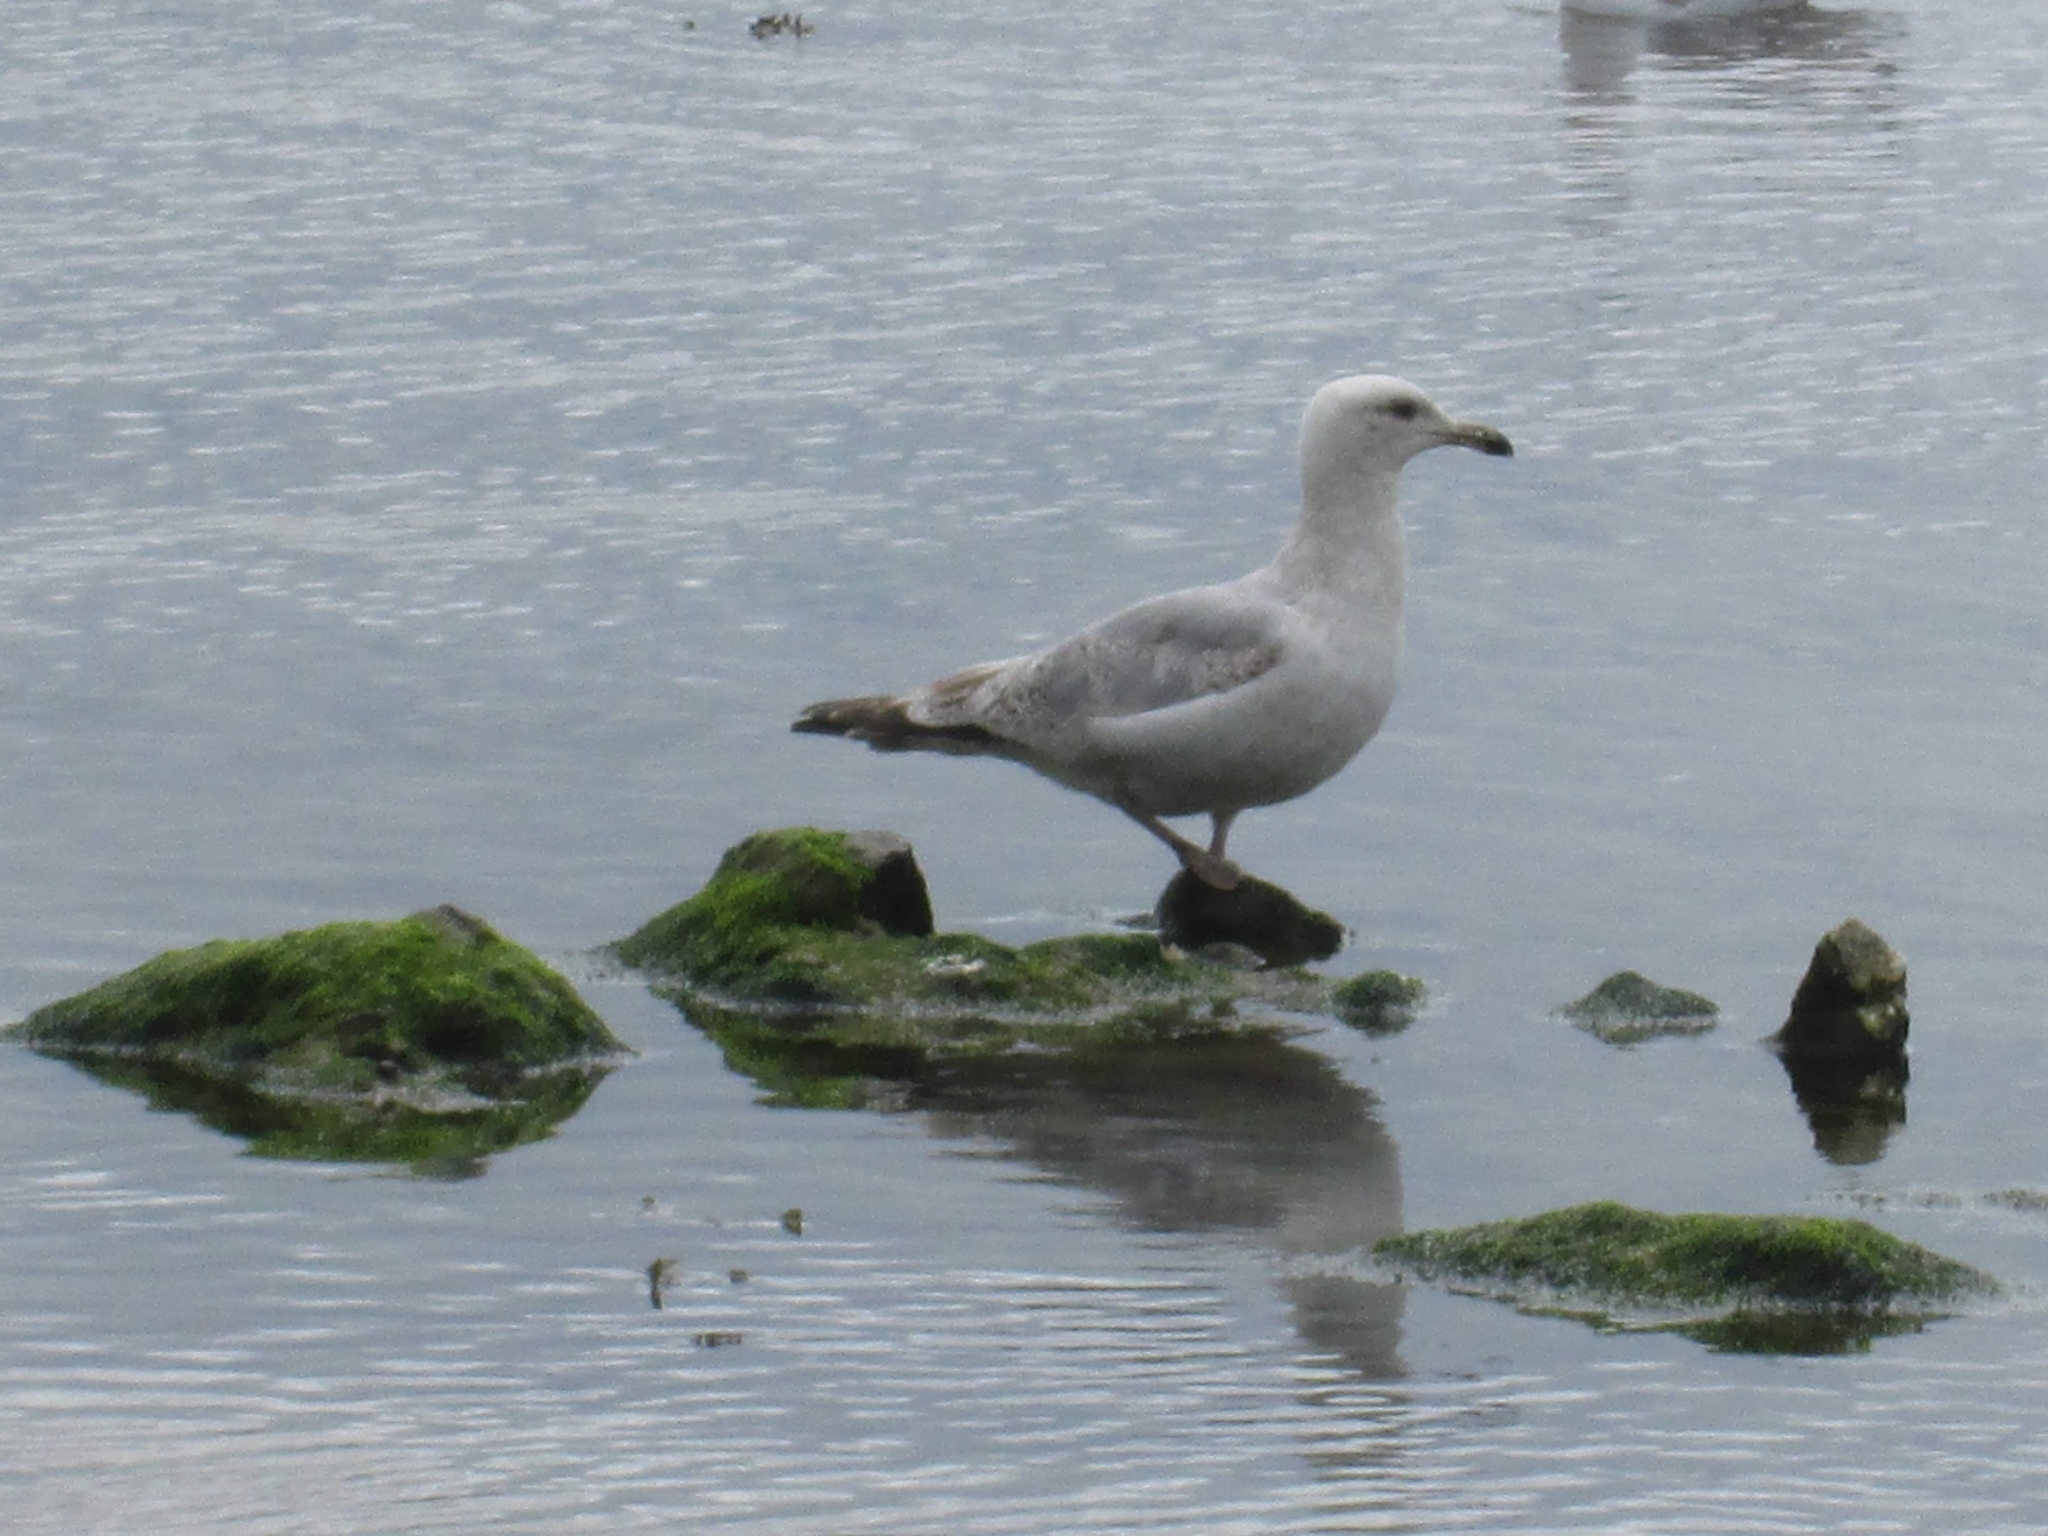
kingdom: Animalia
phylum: Chordata
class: Aves
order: Charadriiformes
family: Laridae
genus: Larus
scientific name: Larus argentatus
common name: Herring gull
